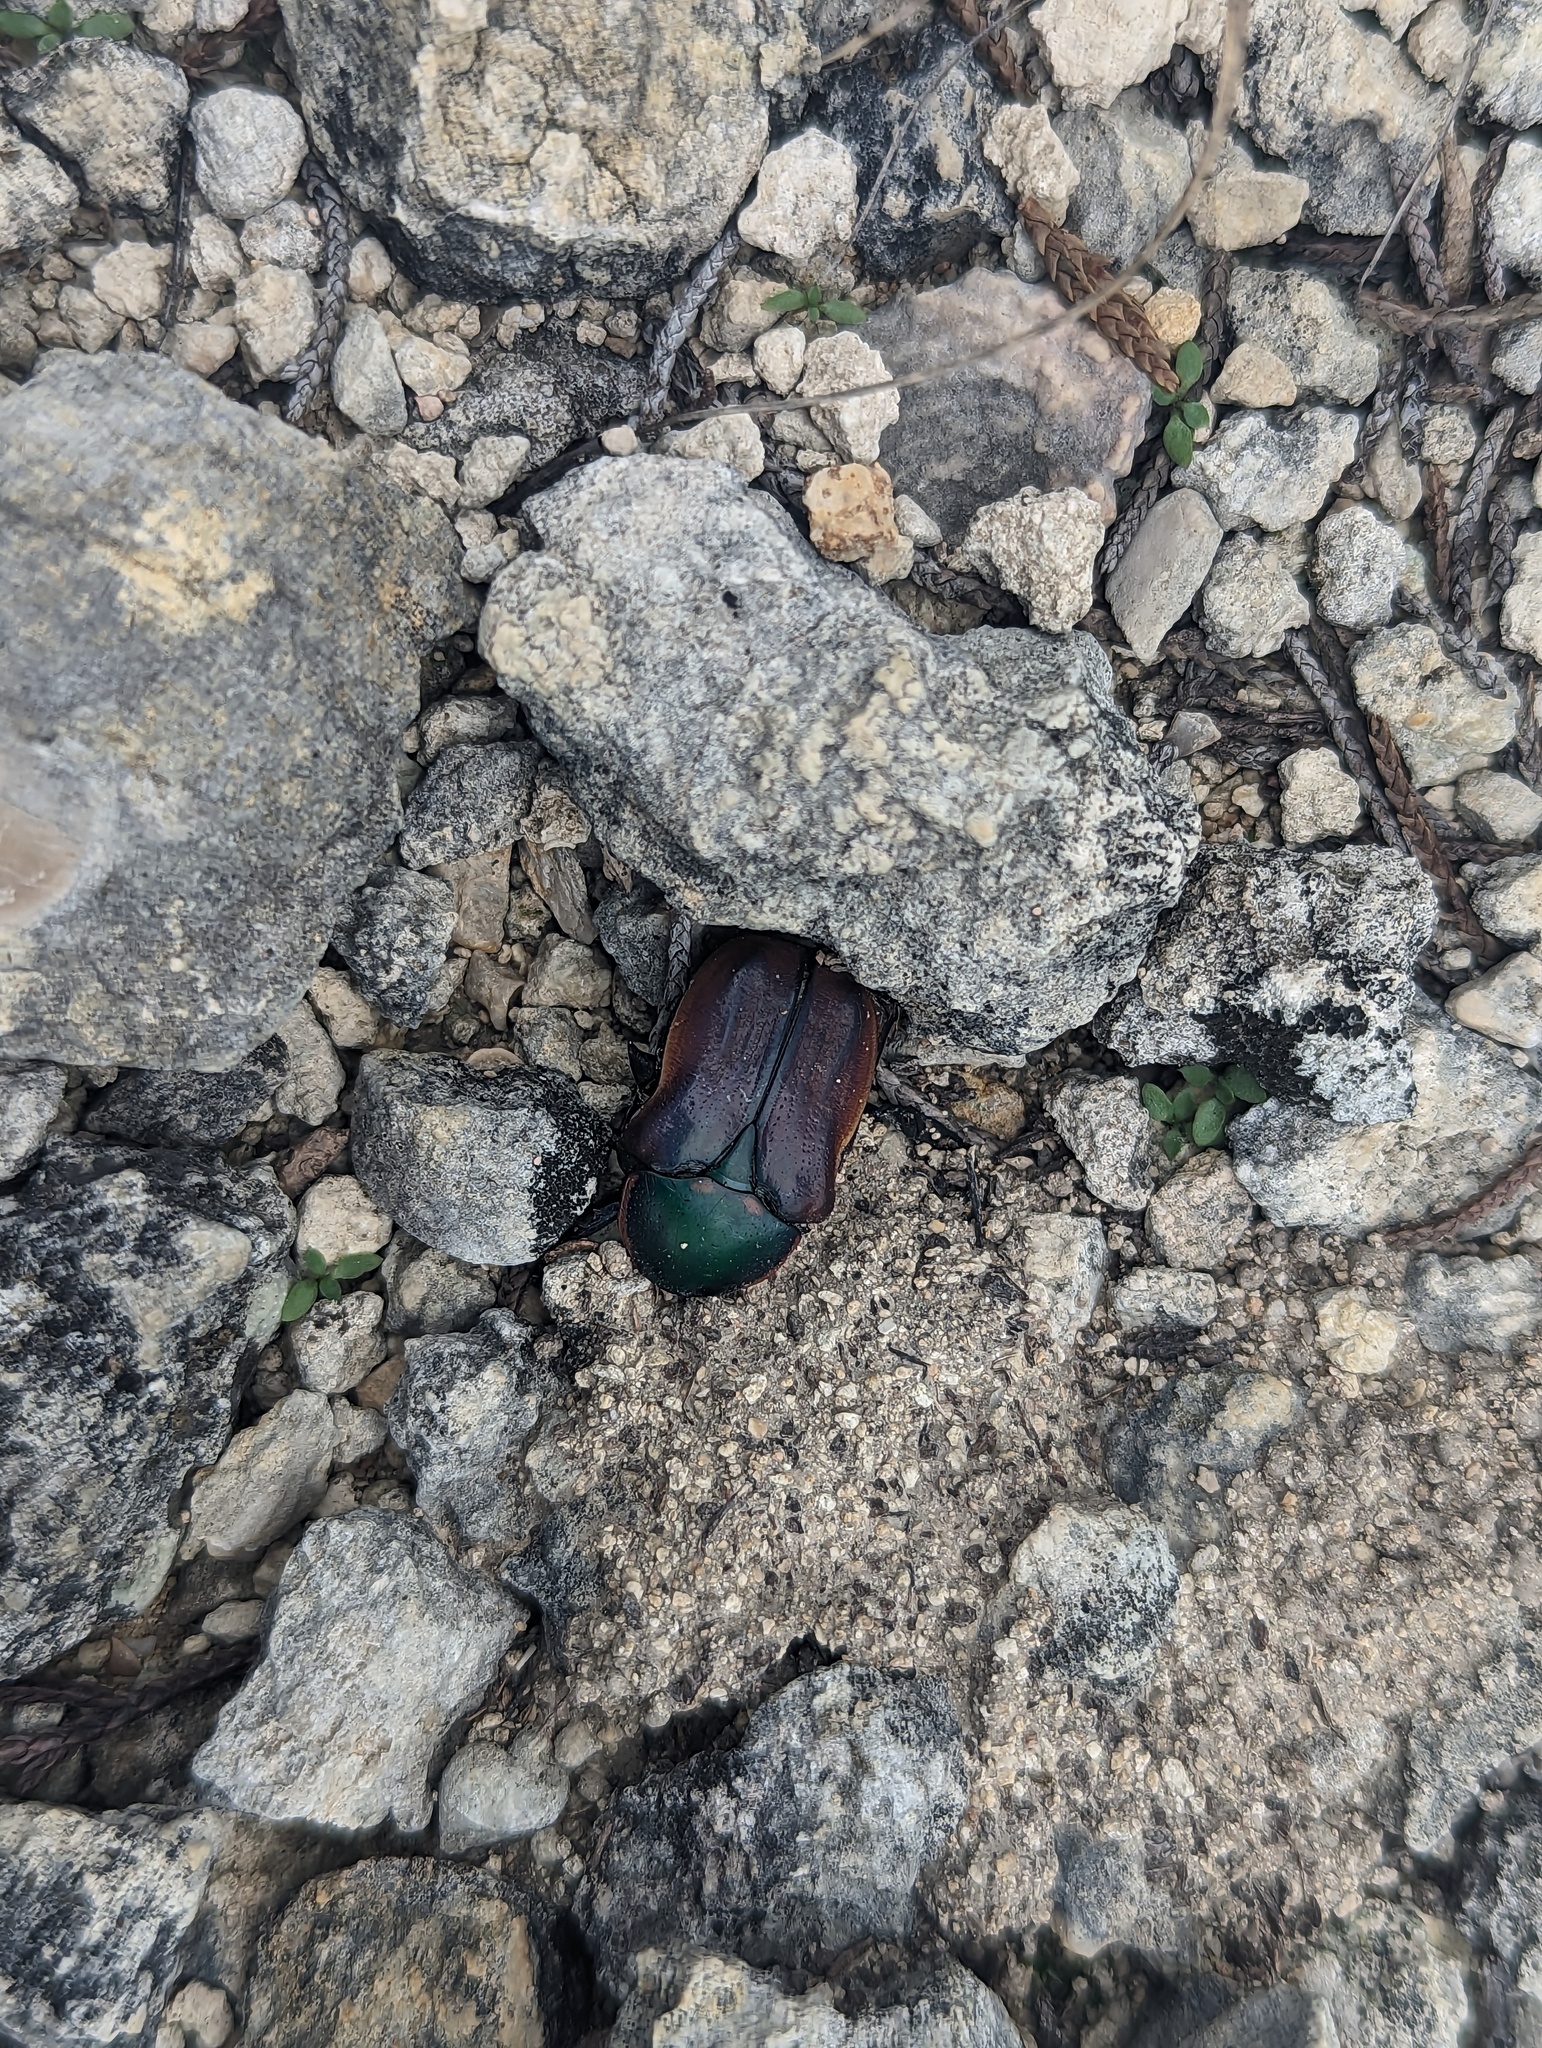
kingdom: Animalia
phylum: Arthropoda
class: Insecta
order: Coleoptera
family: Scarabaeidae
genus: Euphoria
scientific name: Euphoria fulgida
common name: Emerald euphoria
